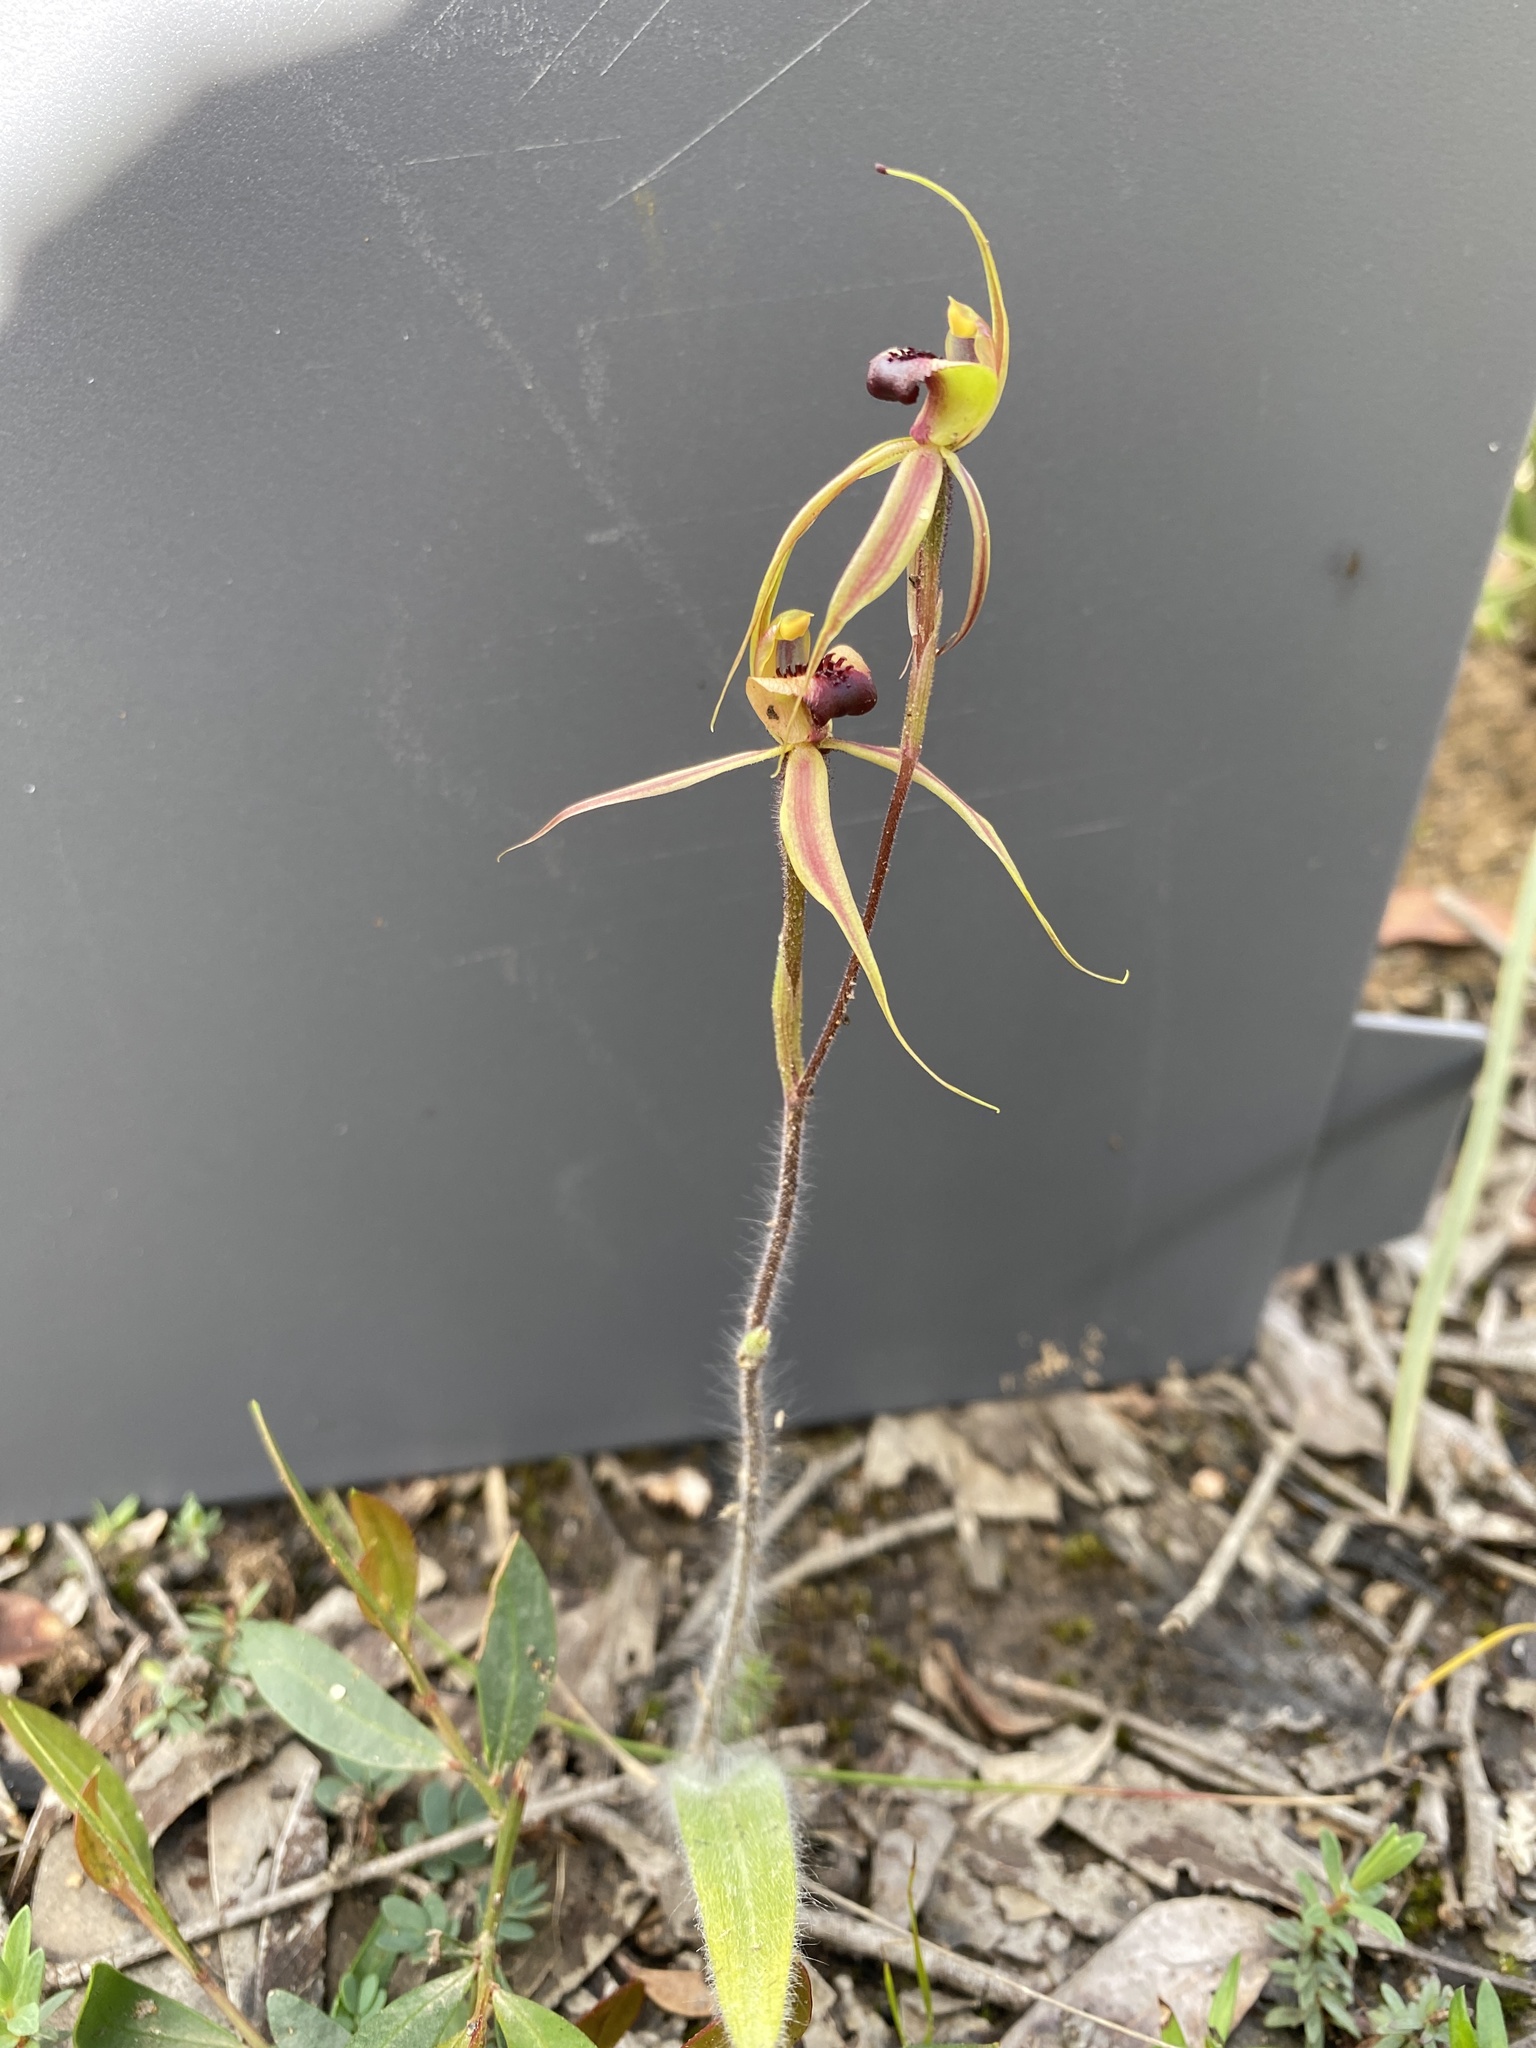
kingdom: Plantae
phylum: Tracheophyta
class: Liliopsida
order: Asparagales
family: Orchidaceae
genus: Caladenia
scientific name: Caladenia clavigera
